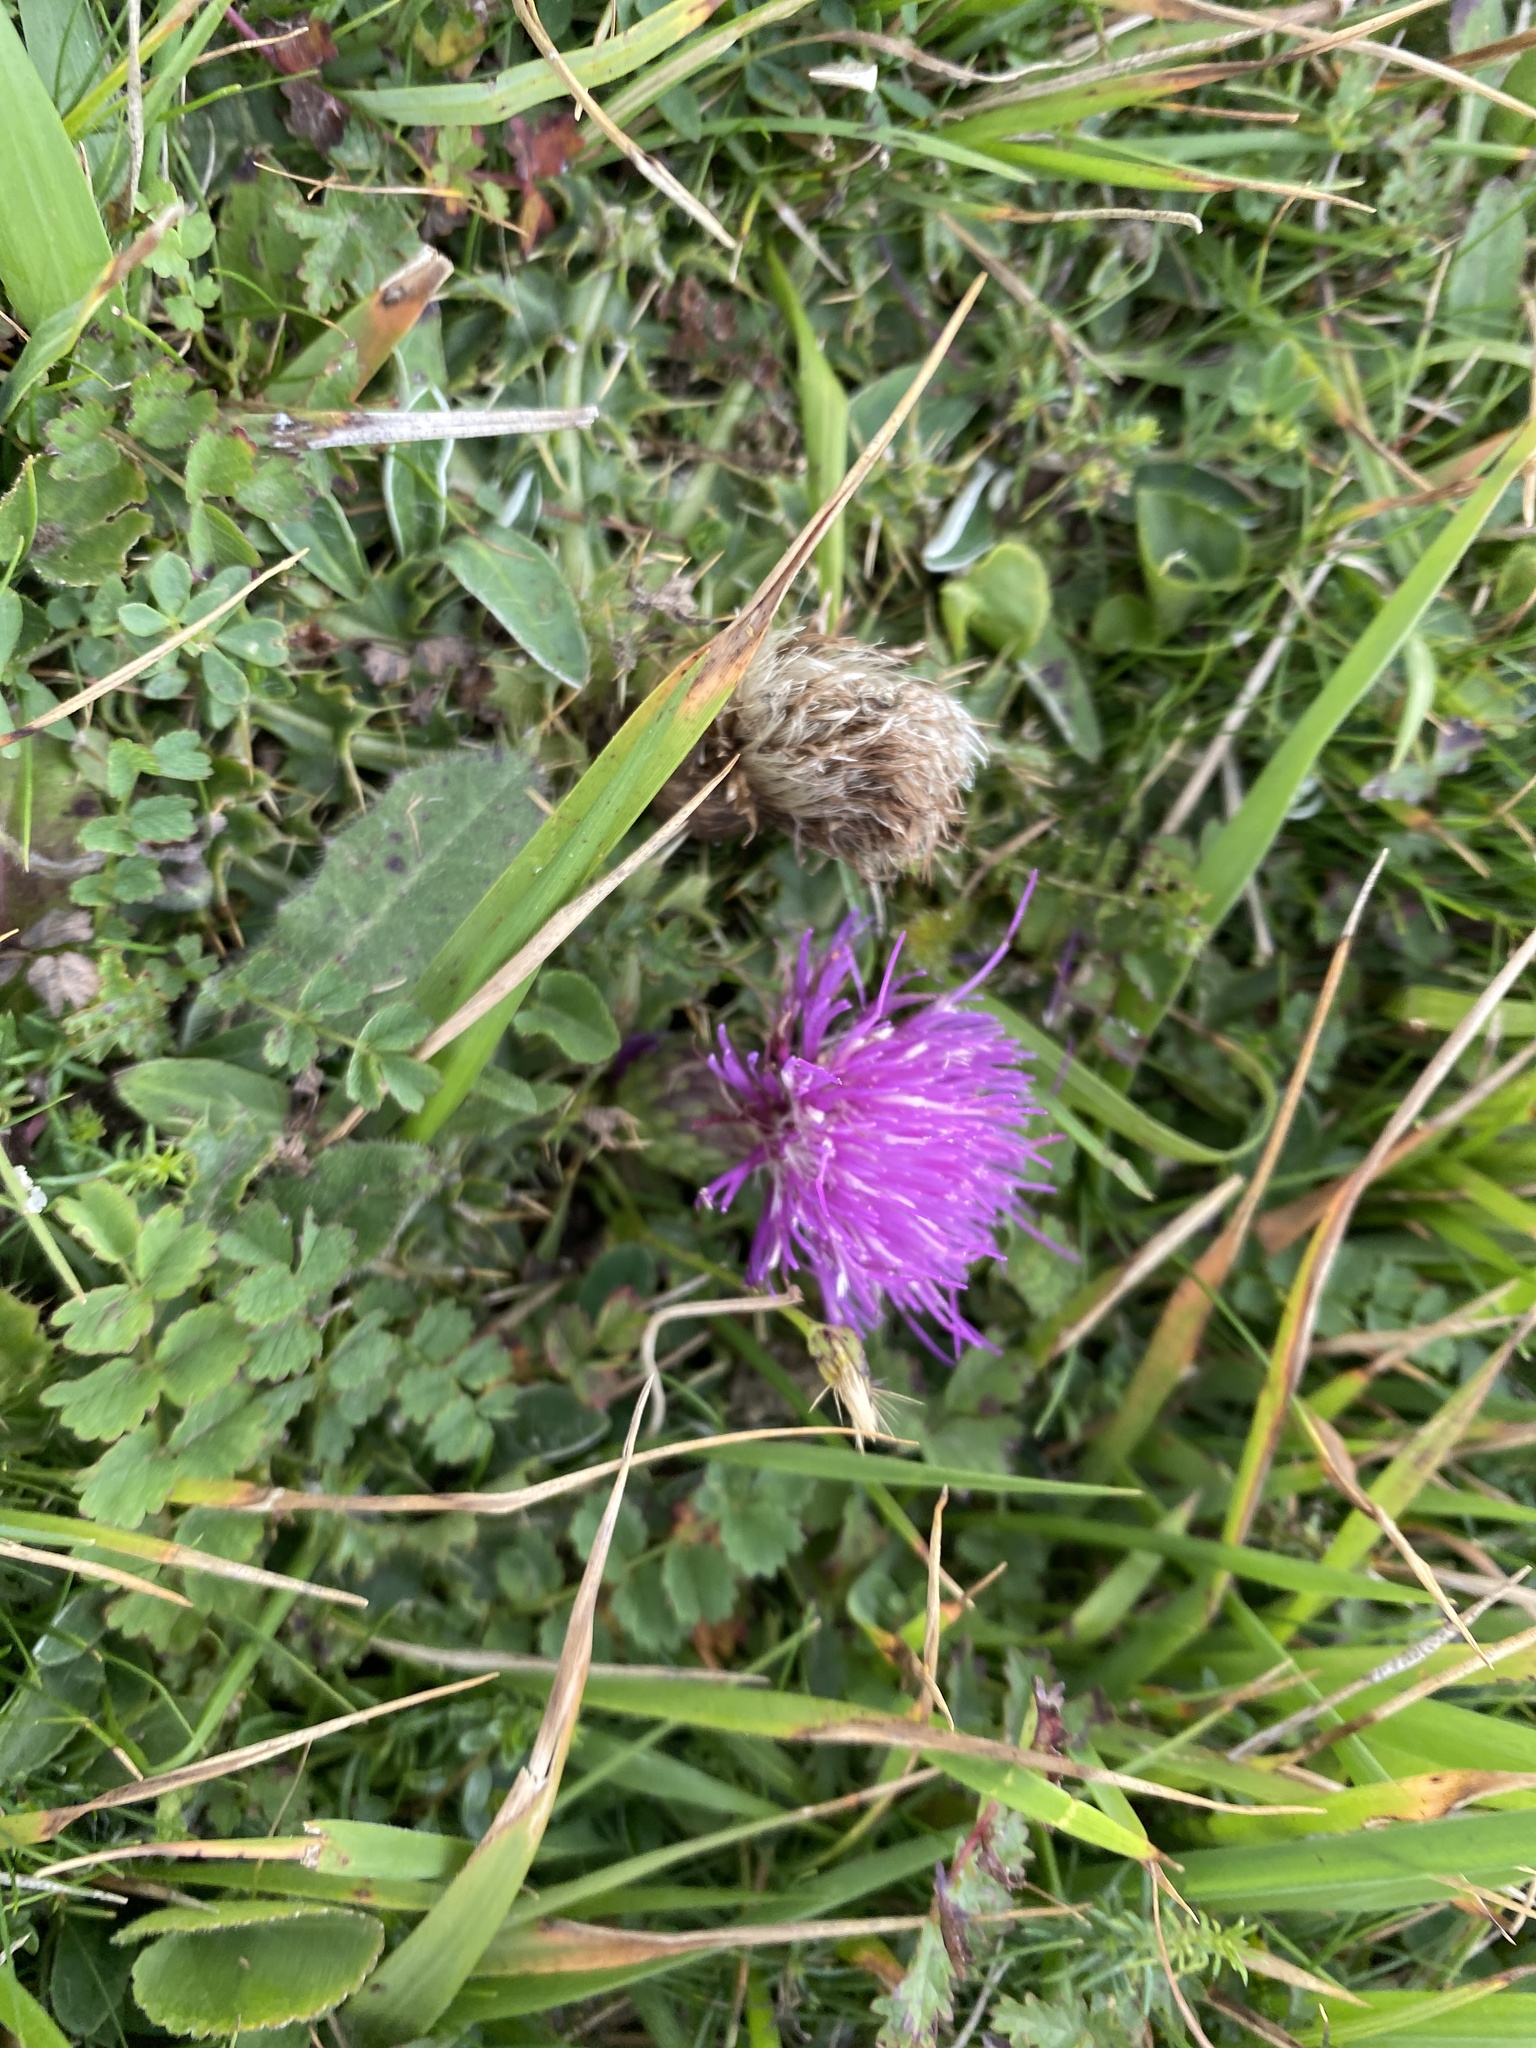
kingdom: Plantae
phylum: Tracheophyta
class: Magnoliopsida
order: Asterales
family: Asteraceae
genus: Cirsium
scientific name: Cirsium acaulon
